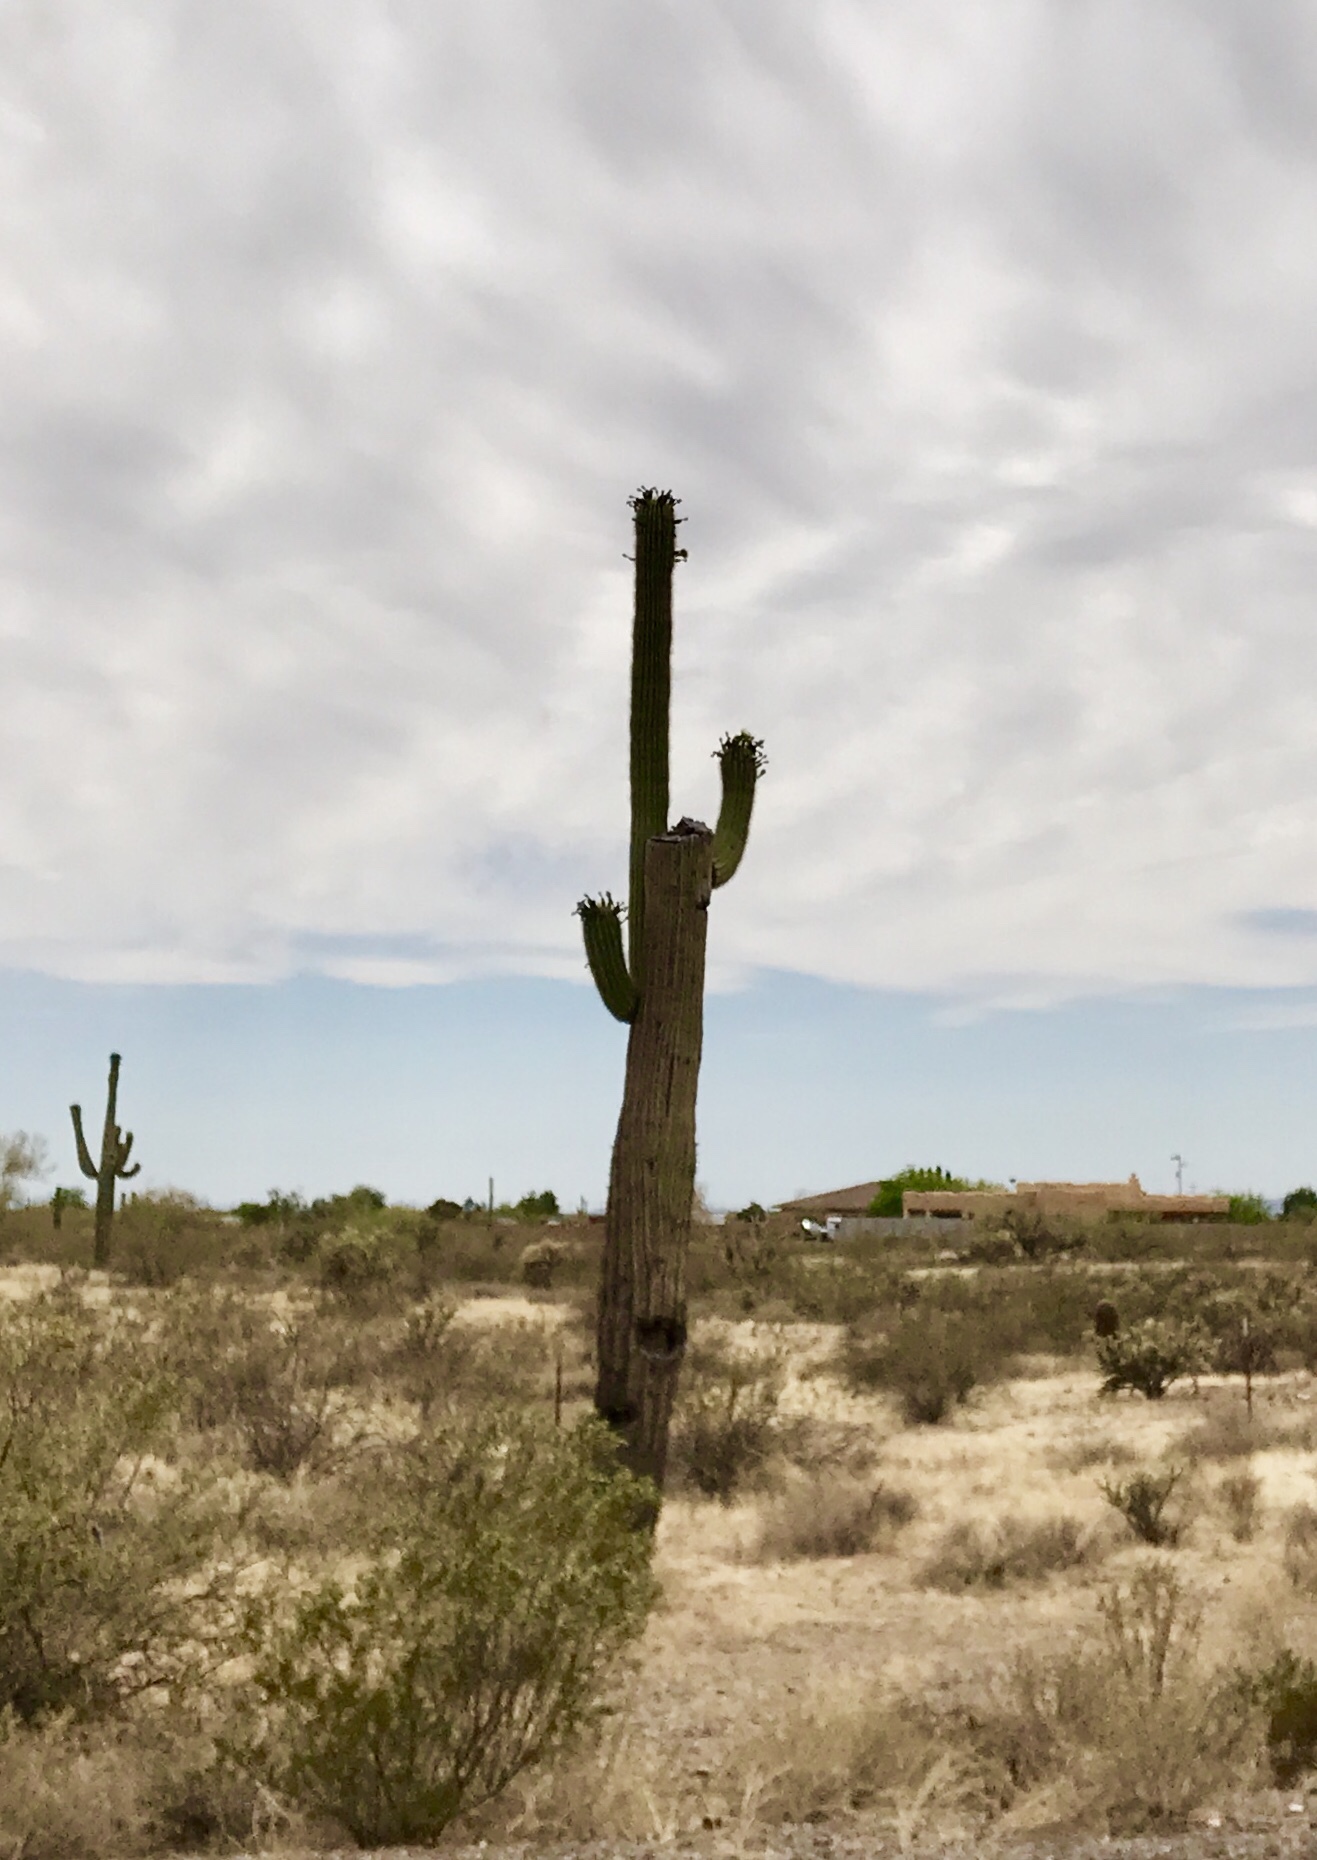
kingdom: Plantae
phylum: Tracheophyta
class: Magnoliopsida
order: Caryophyllales
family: Cactaceae
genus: Carnegiea
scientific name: Carnegiea gigantea
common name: Saguaro
